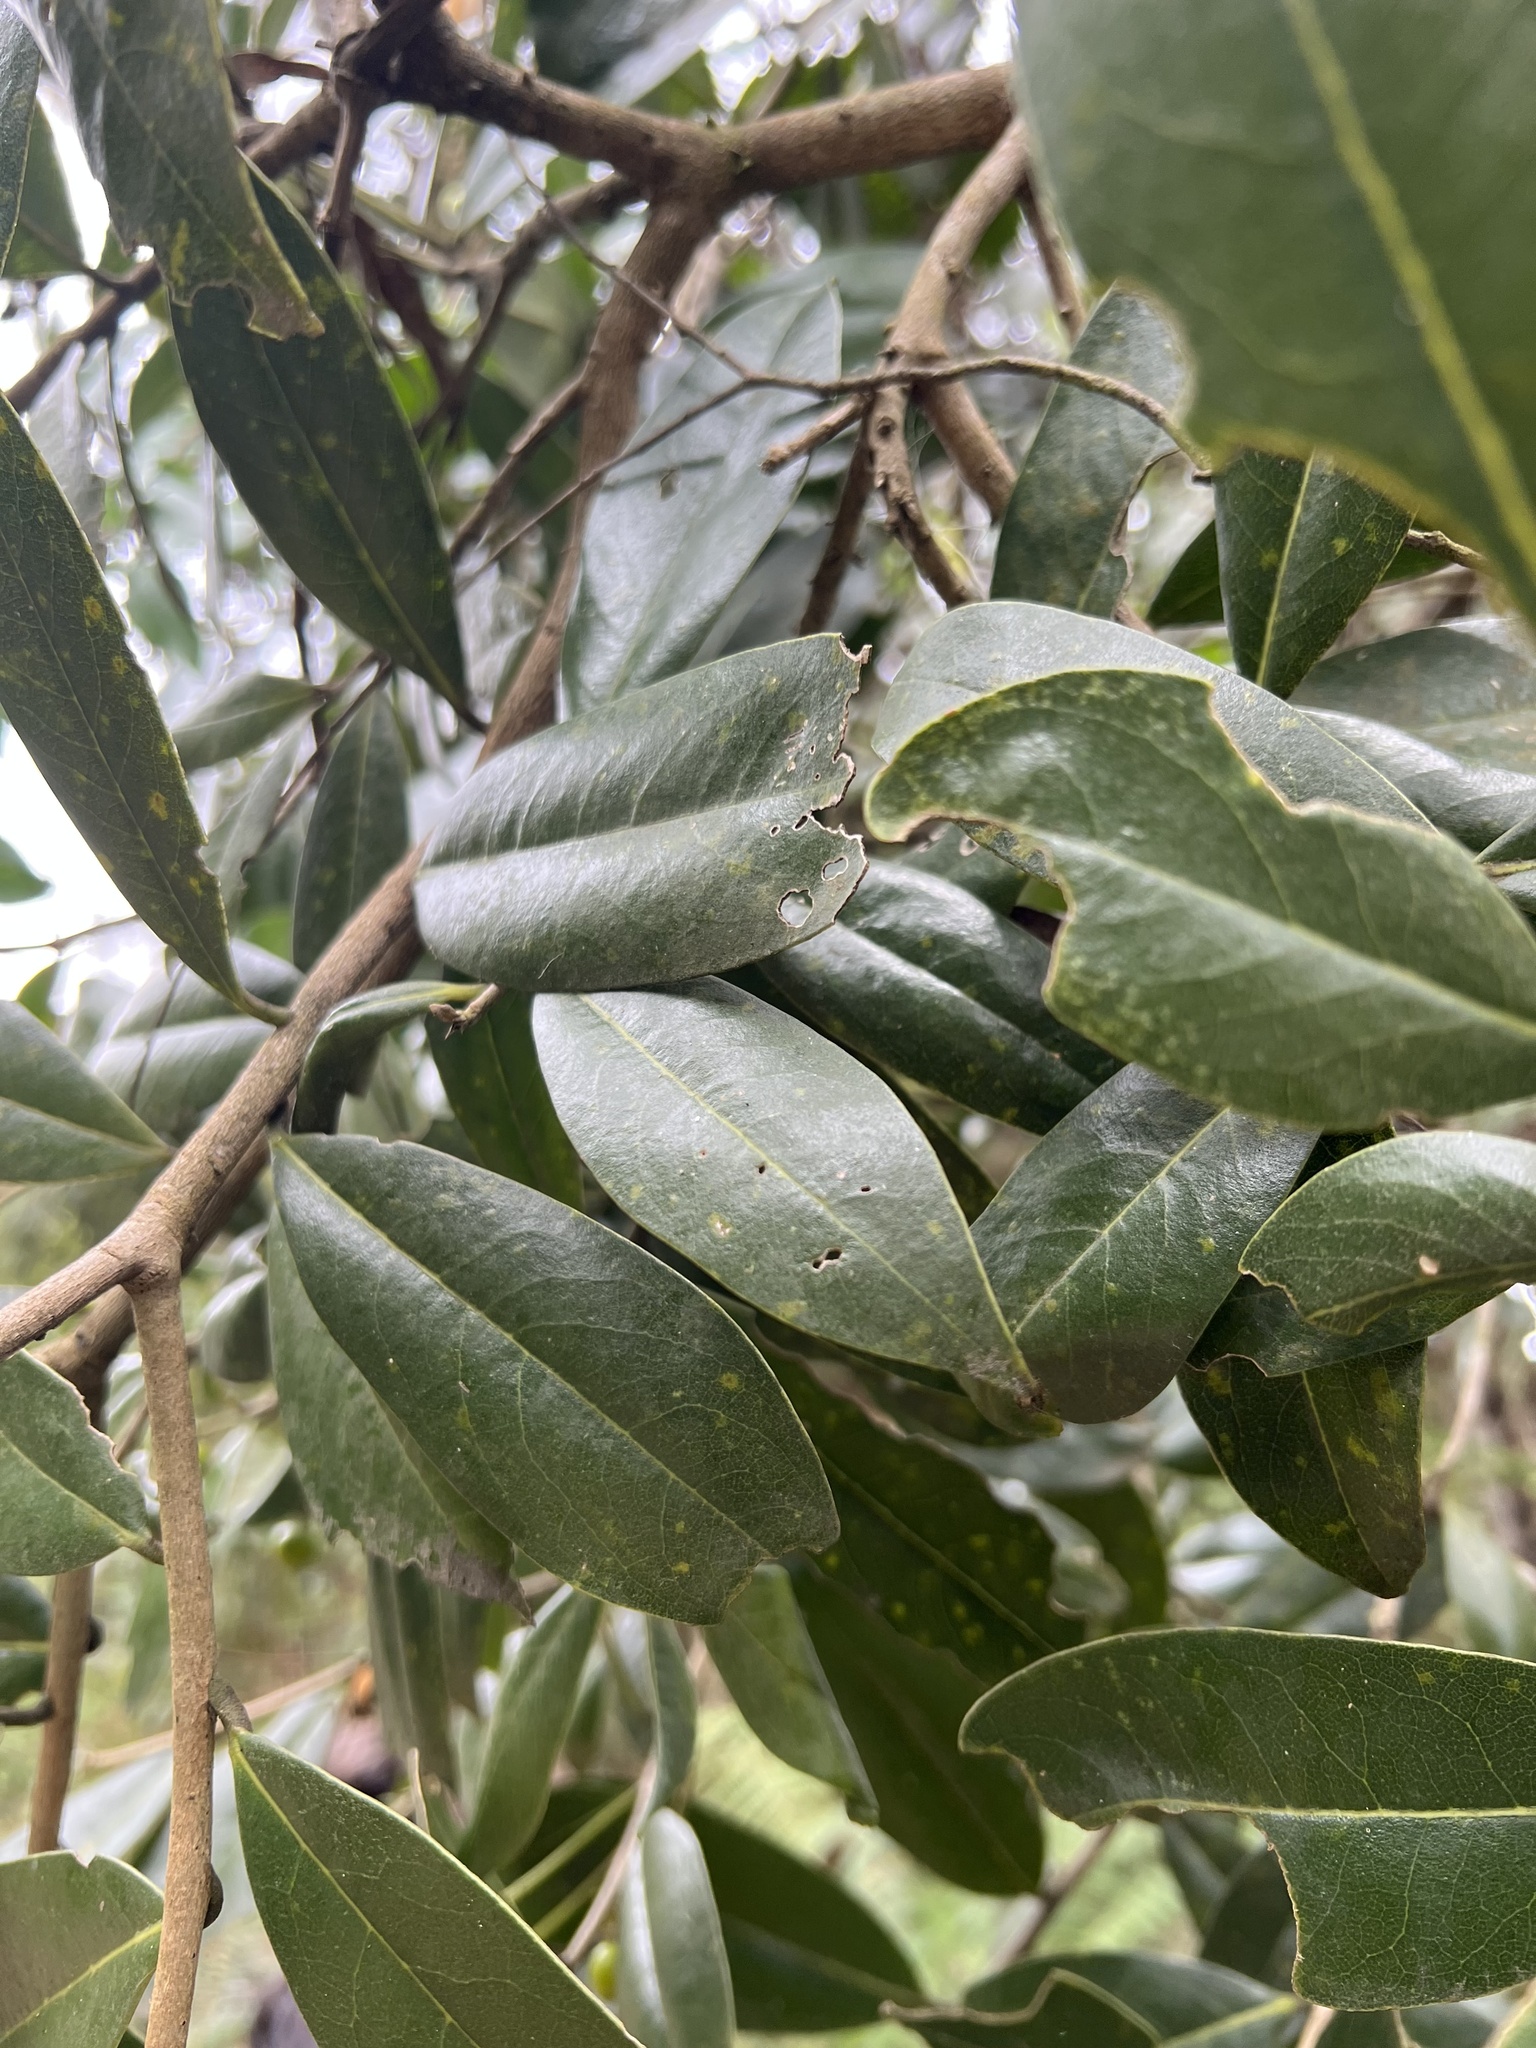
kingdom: Plantae
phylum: Tracheophyta
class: Magnoliopsida
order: Malvales
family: Thymelaeaceae
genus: Daphnopsis
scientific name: Daphnopsis caracasana
